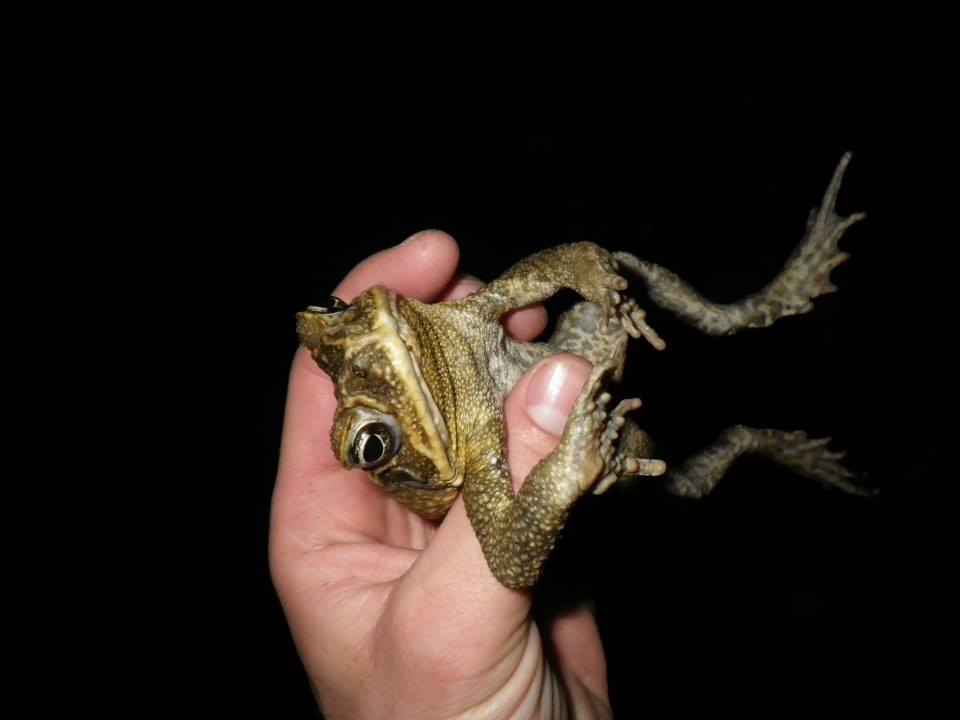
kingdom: Animalia
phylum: Chordata
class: Amphibia
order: Anura
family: Bufonidae
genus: Rhinella
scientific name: Rhinella marina
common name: Cane toad
